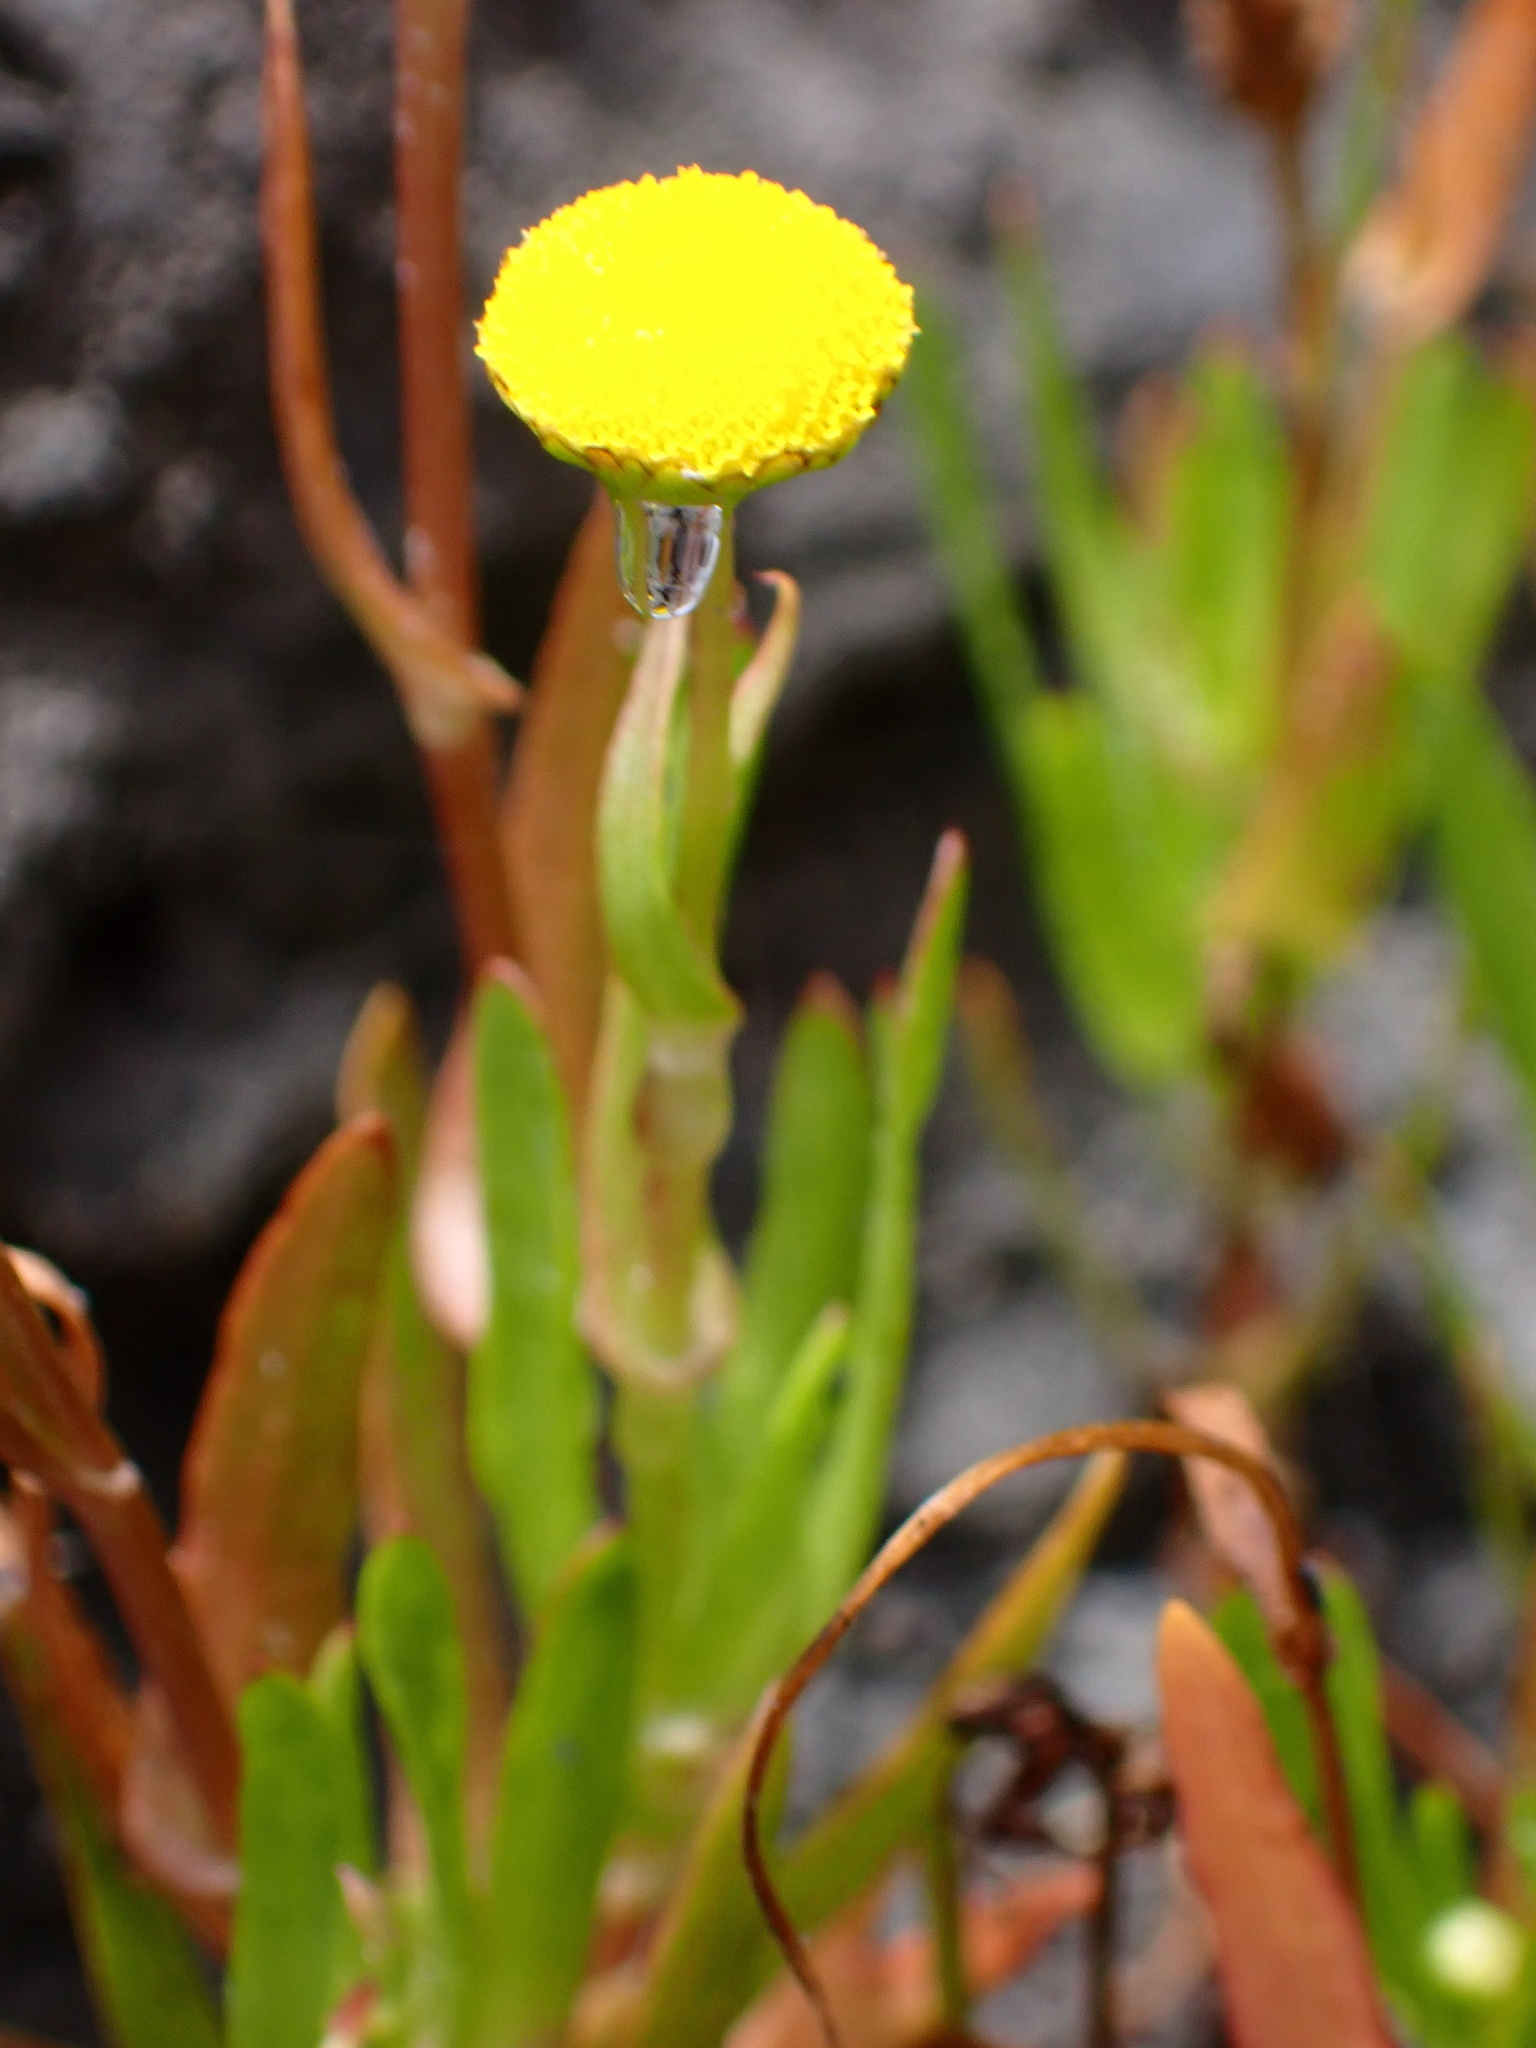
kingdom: Plantae
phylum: Tracheophyta
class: Magnoliopsida
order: Asterales
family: Asteraceae
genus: Cotula
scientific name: Cotula coronopifolia
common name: Buttonweed
